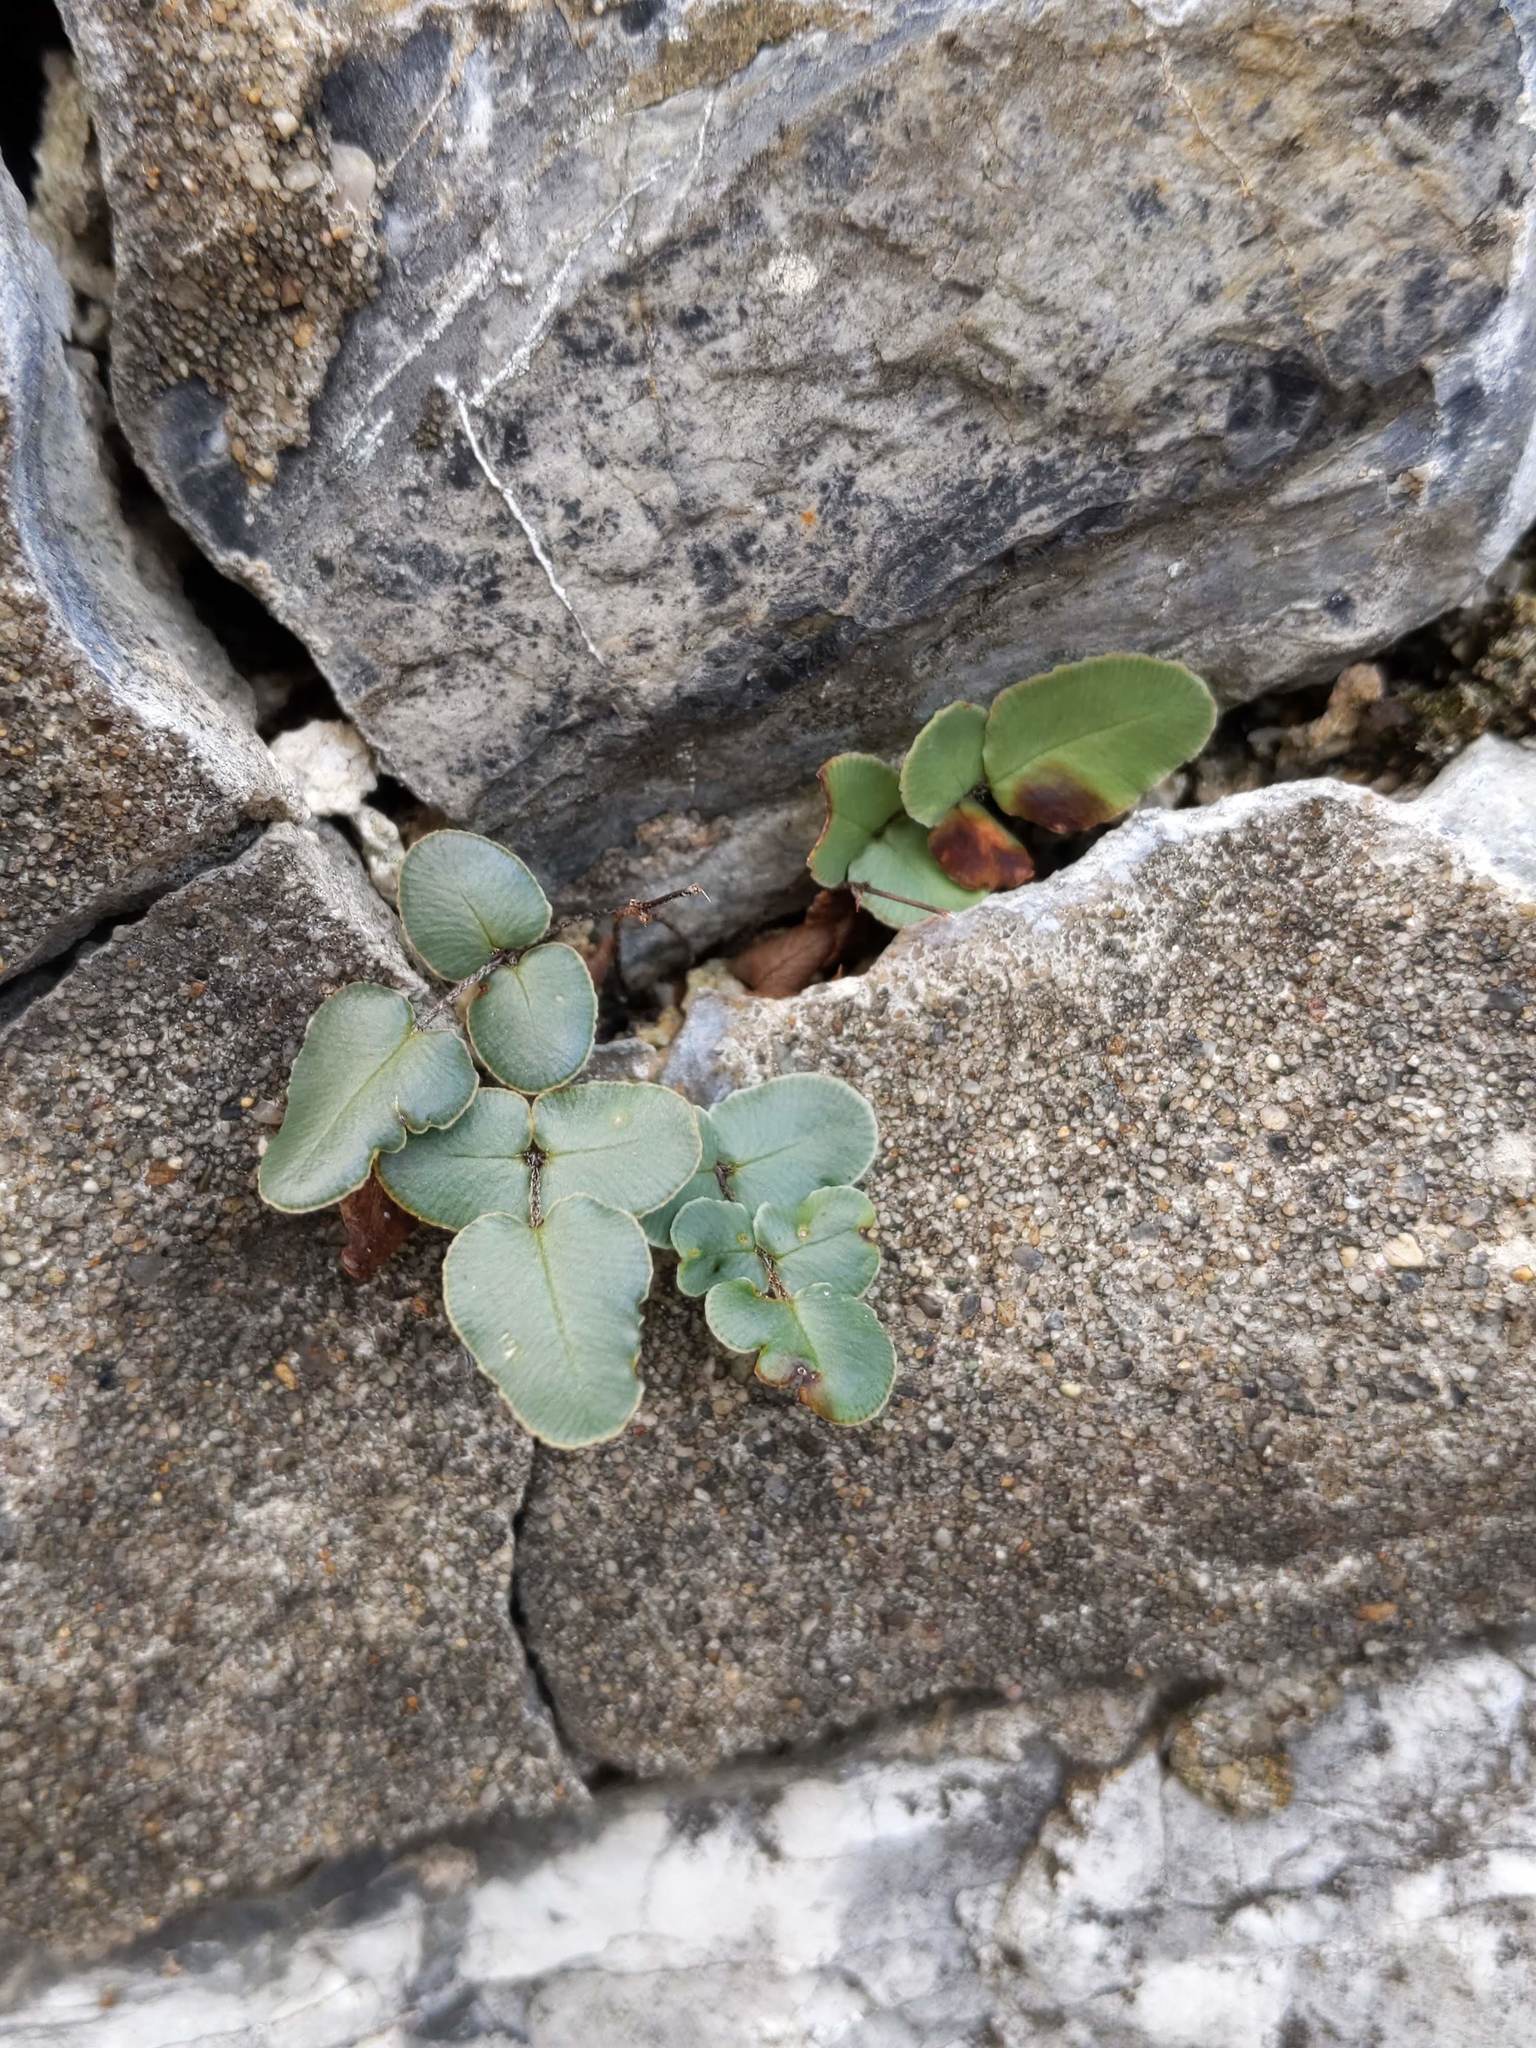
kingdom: Plantae
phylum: Tracheophyta
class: Polypodiopsida
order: Polypodiales
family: Pteridaceae
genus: Pellaea
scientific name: Pellaea atropurpurea
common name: Hairy cliffbrake
